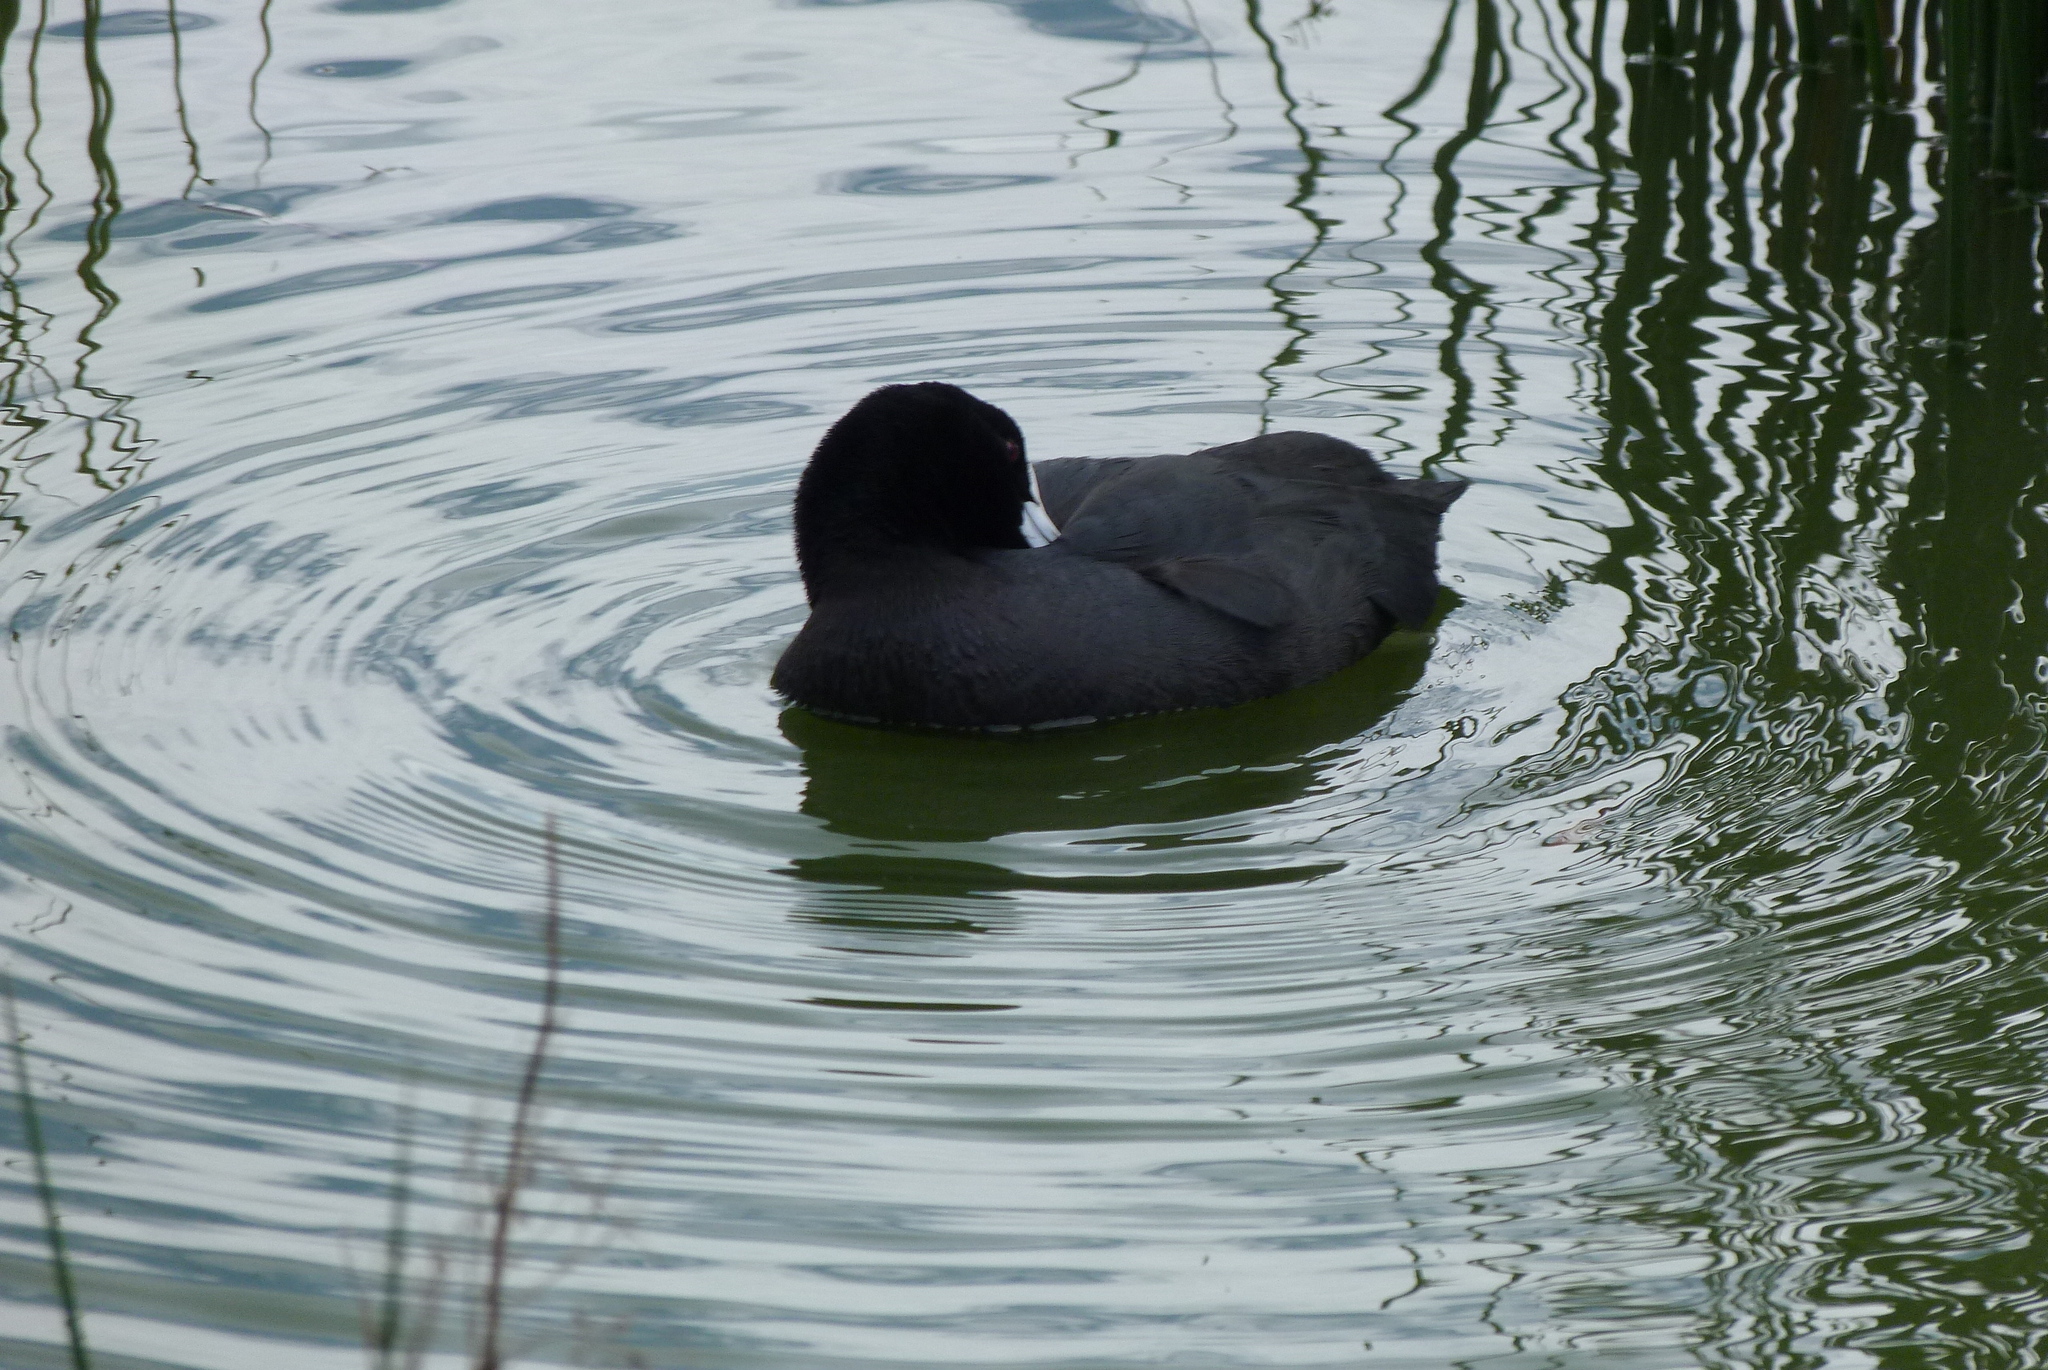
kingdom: Animalia
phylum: Chordata
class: Aves
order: Gruiformes
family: Rallidae
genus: Fulica
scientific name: Fulica atra
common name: Eurasian coot
